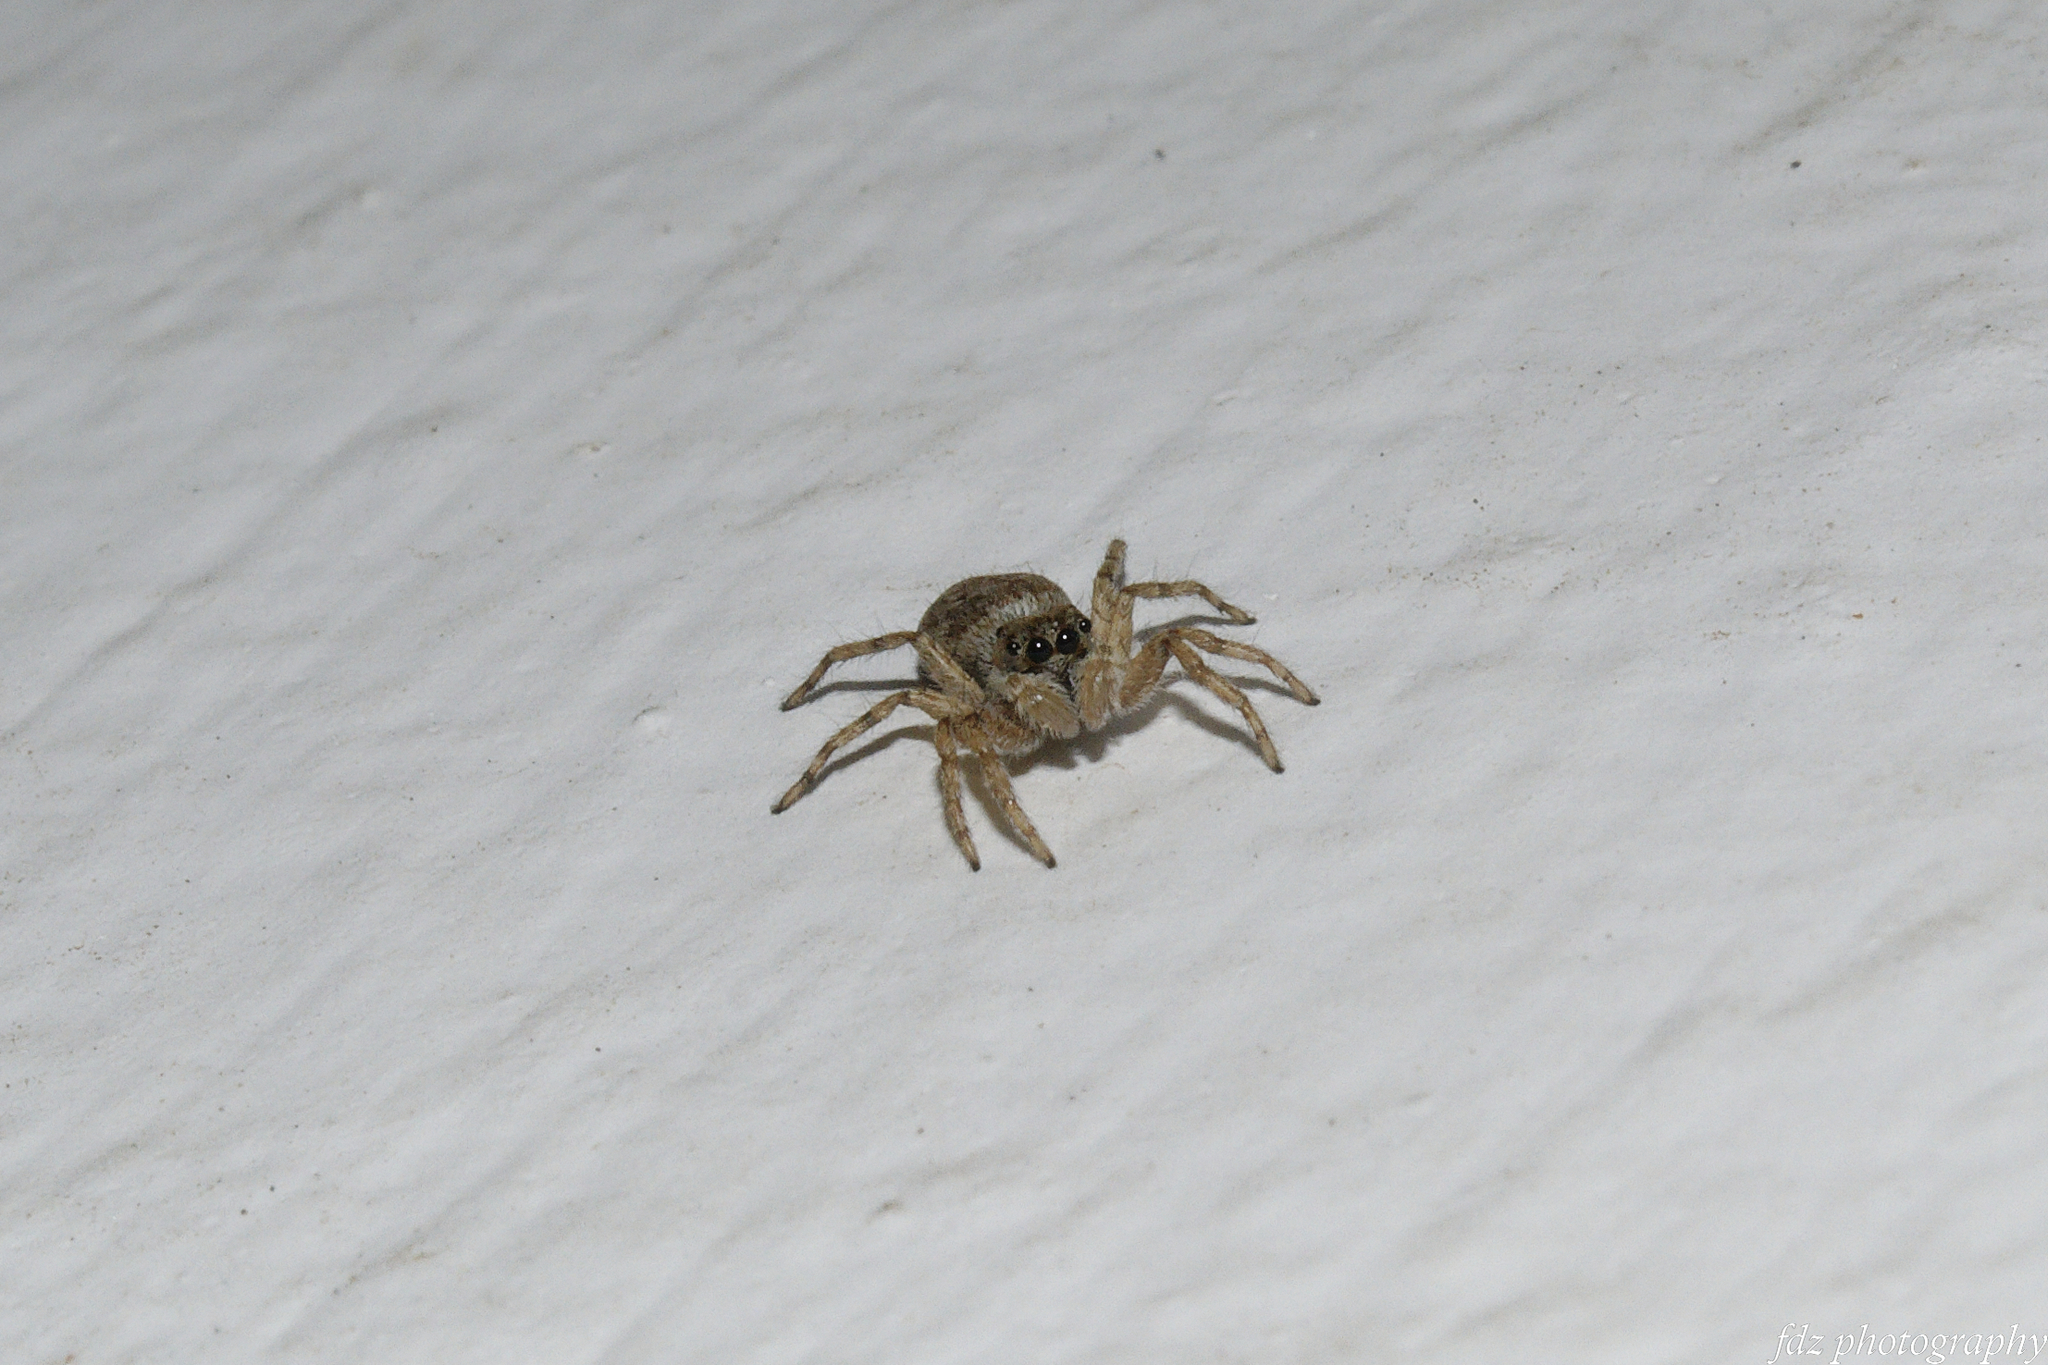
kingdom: Animalia
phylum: Arthropoda
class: Arachnida
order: Araneae
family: Salticidae
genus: Menemerus
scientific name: Menemerus semilimbatus
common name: Jumping spider
